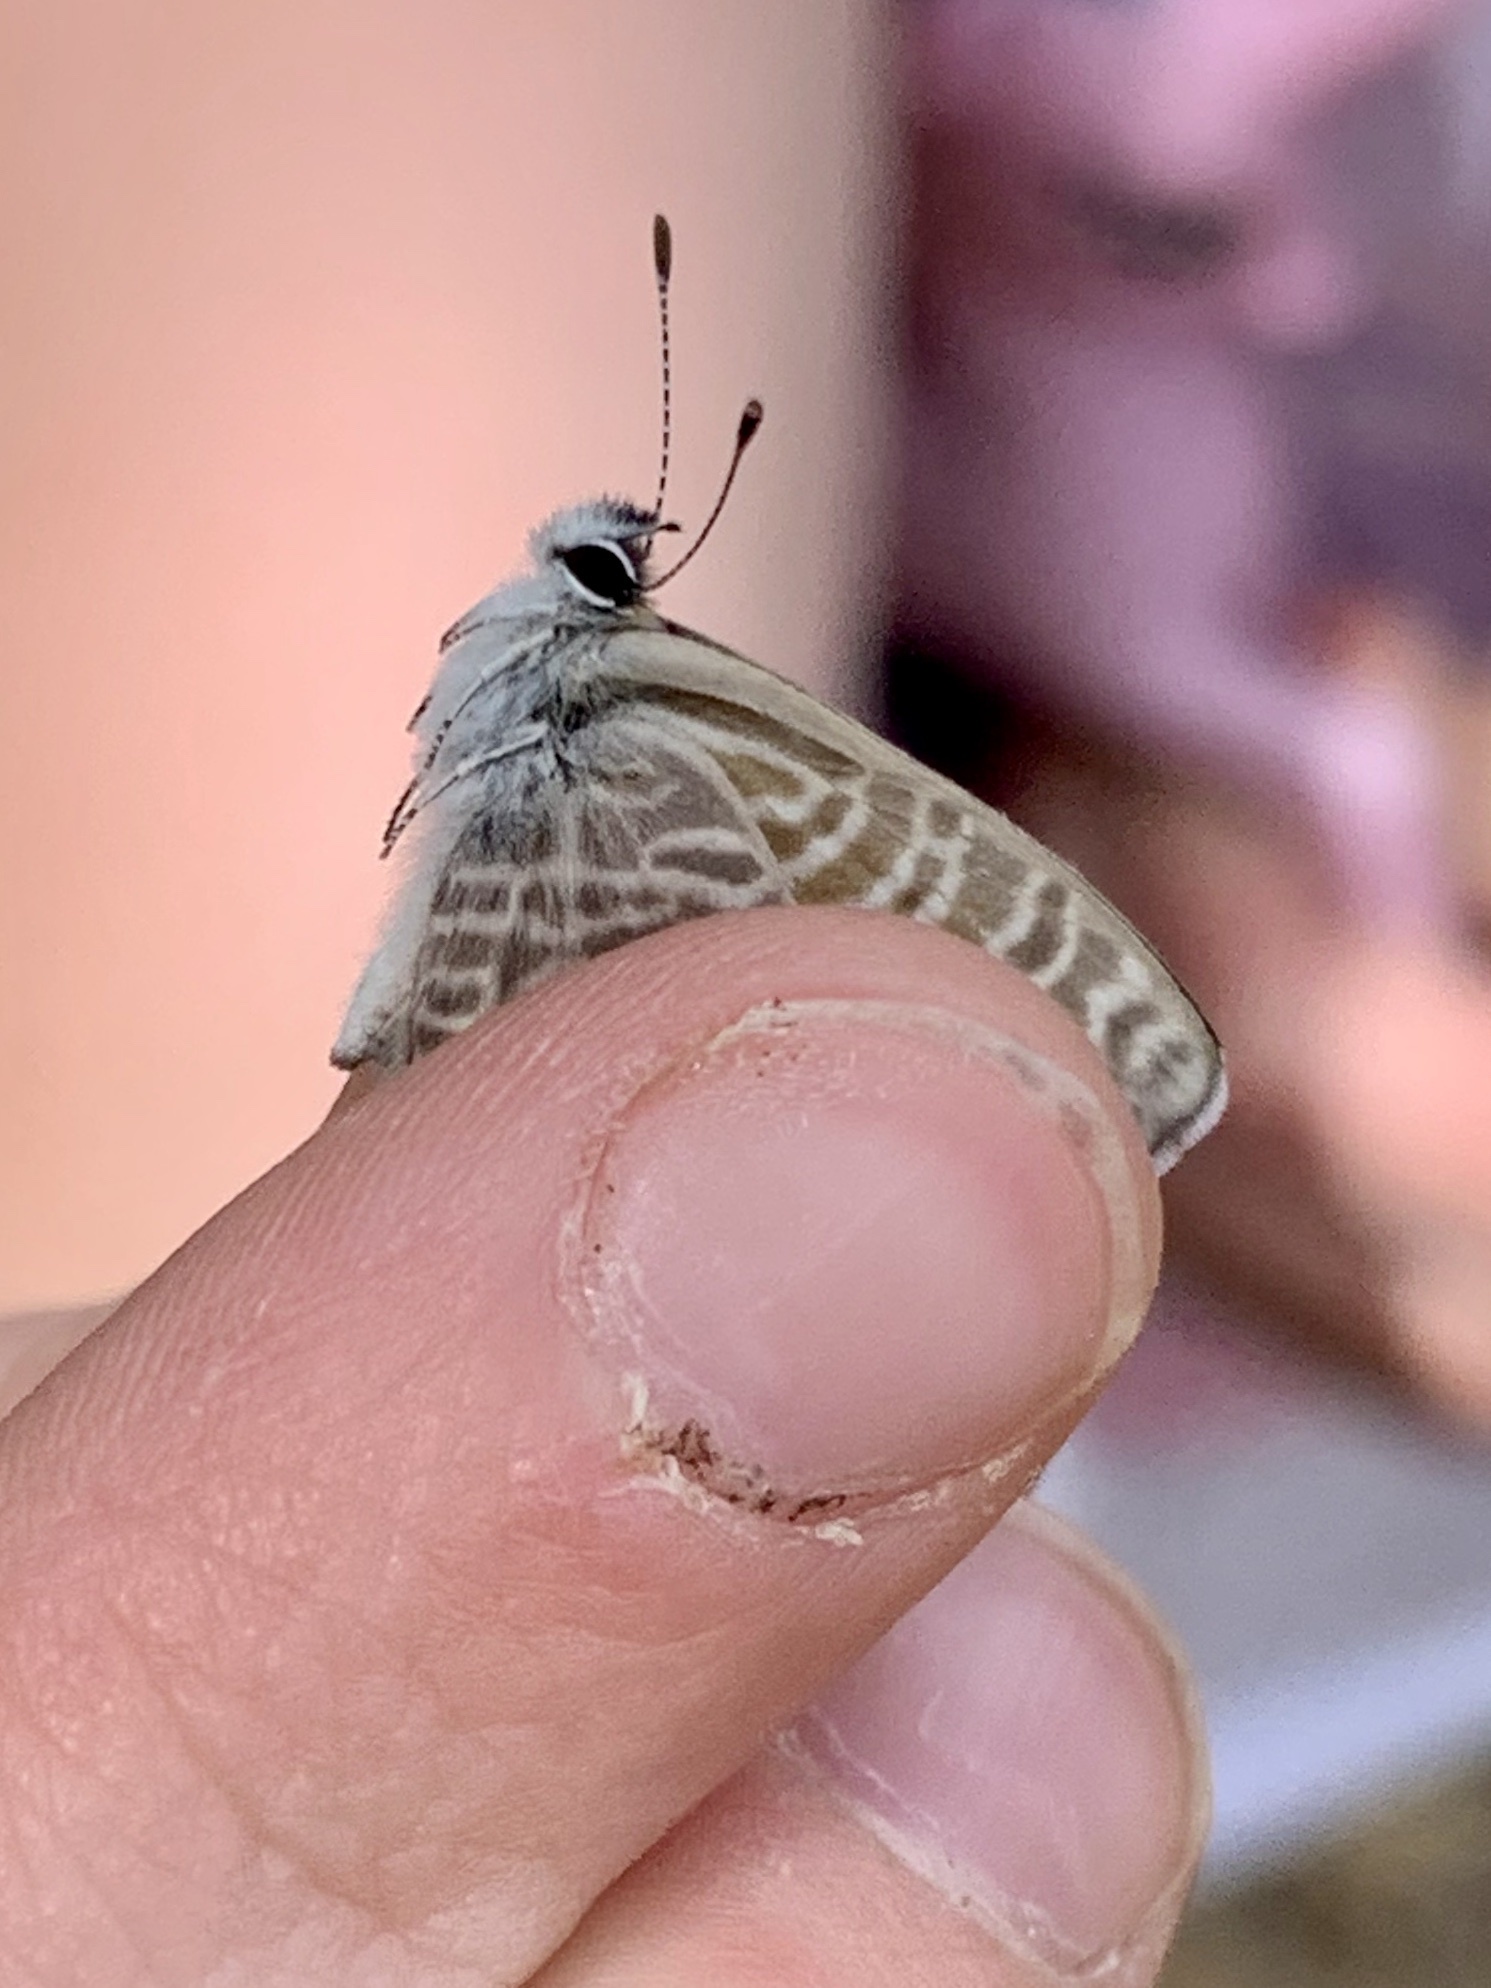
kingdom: Animalia
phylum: Arthropoda
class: Insecta
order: Lepidoptera
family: Lycaenidae
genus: Leptotes
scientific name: Leptotes marina
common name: Marine blue
